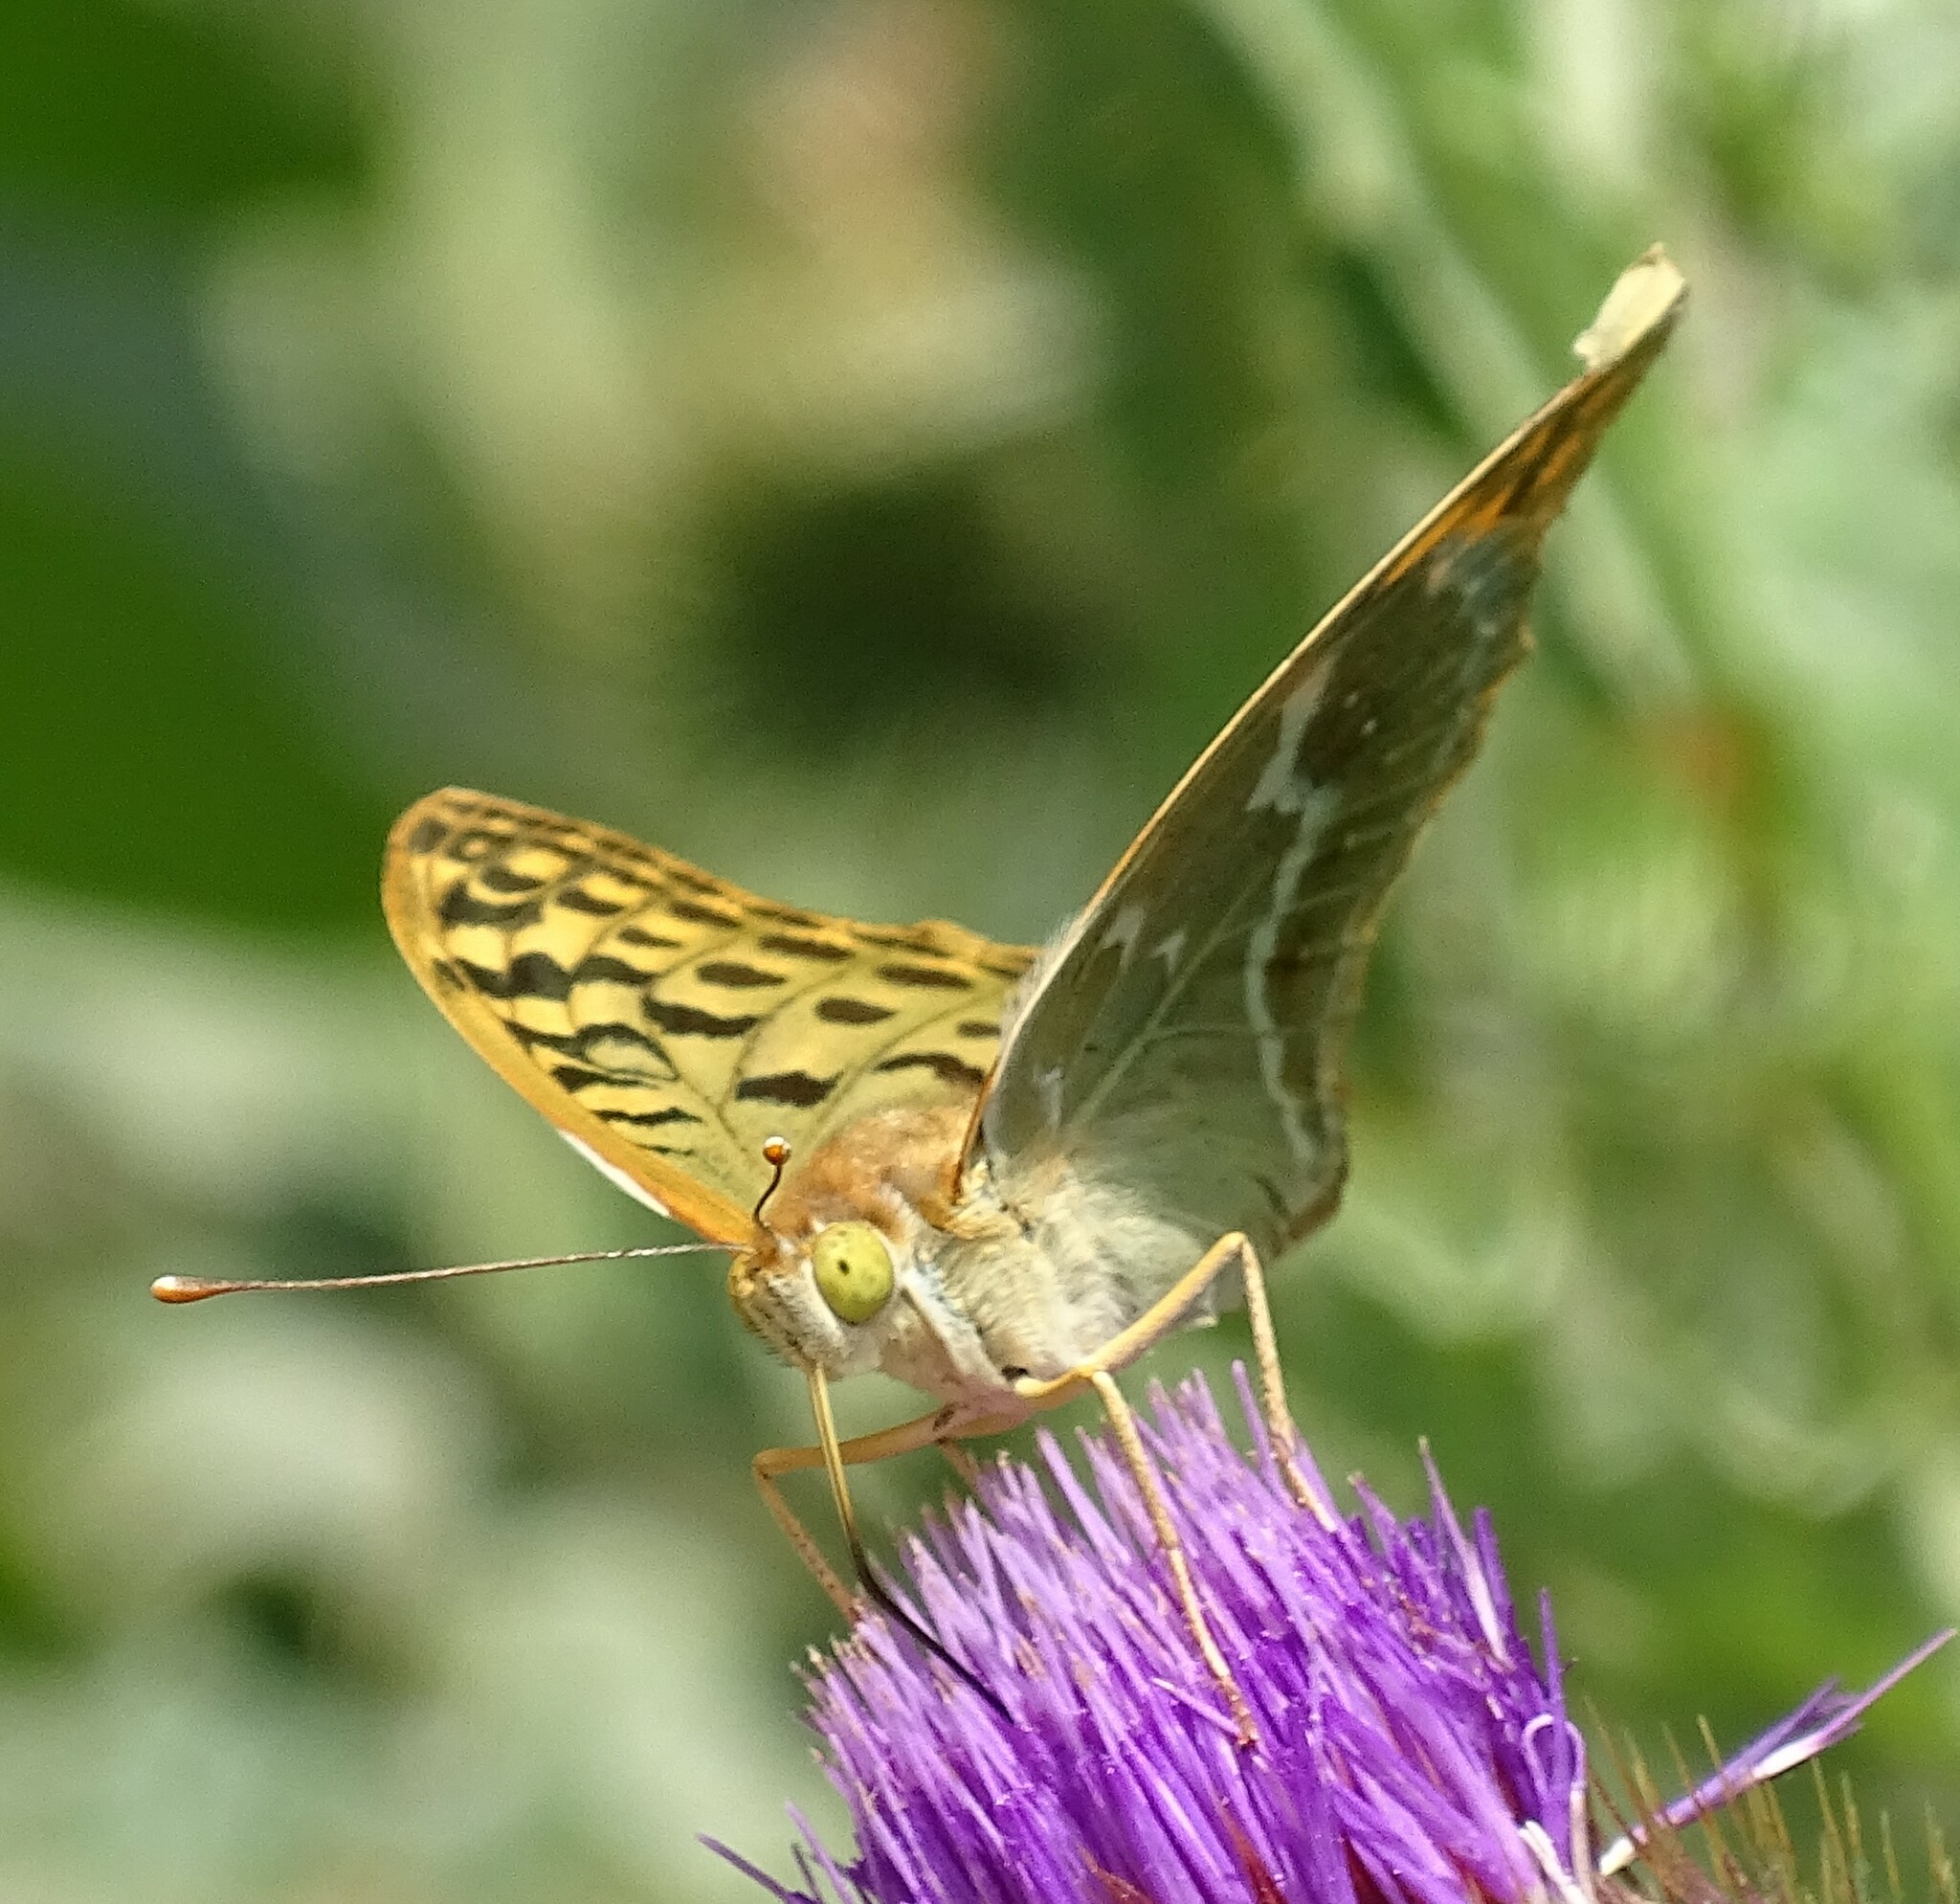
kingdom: Animalia
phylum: Arthropoda
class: Insecta
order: Lepidoptera
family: Nymphalidae
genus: Damora
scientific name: Damora pandora
